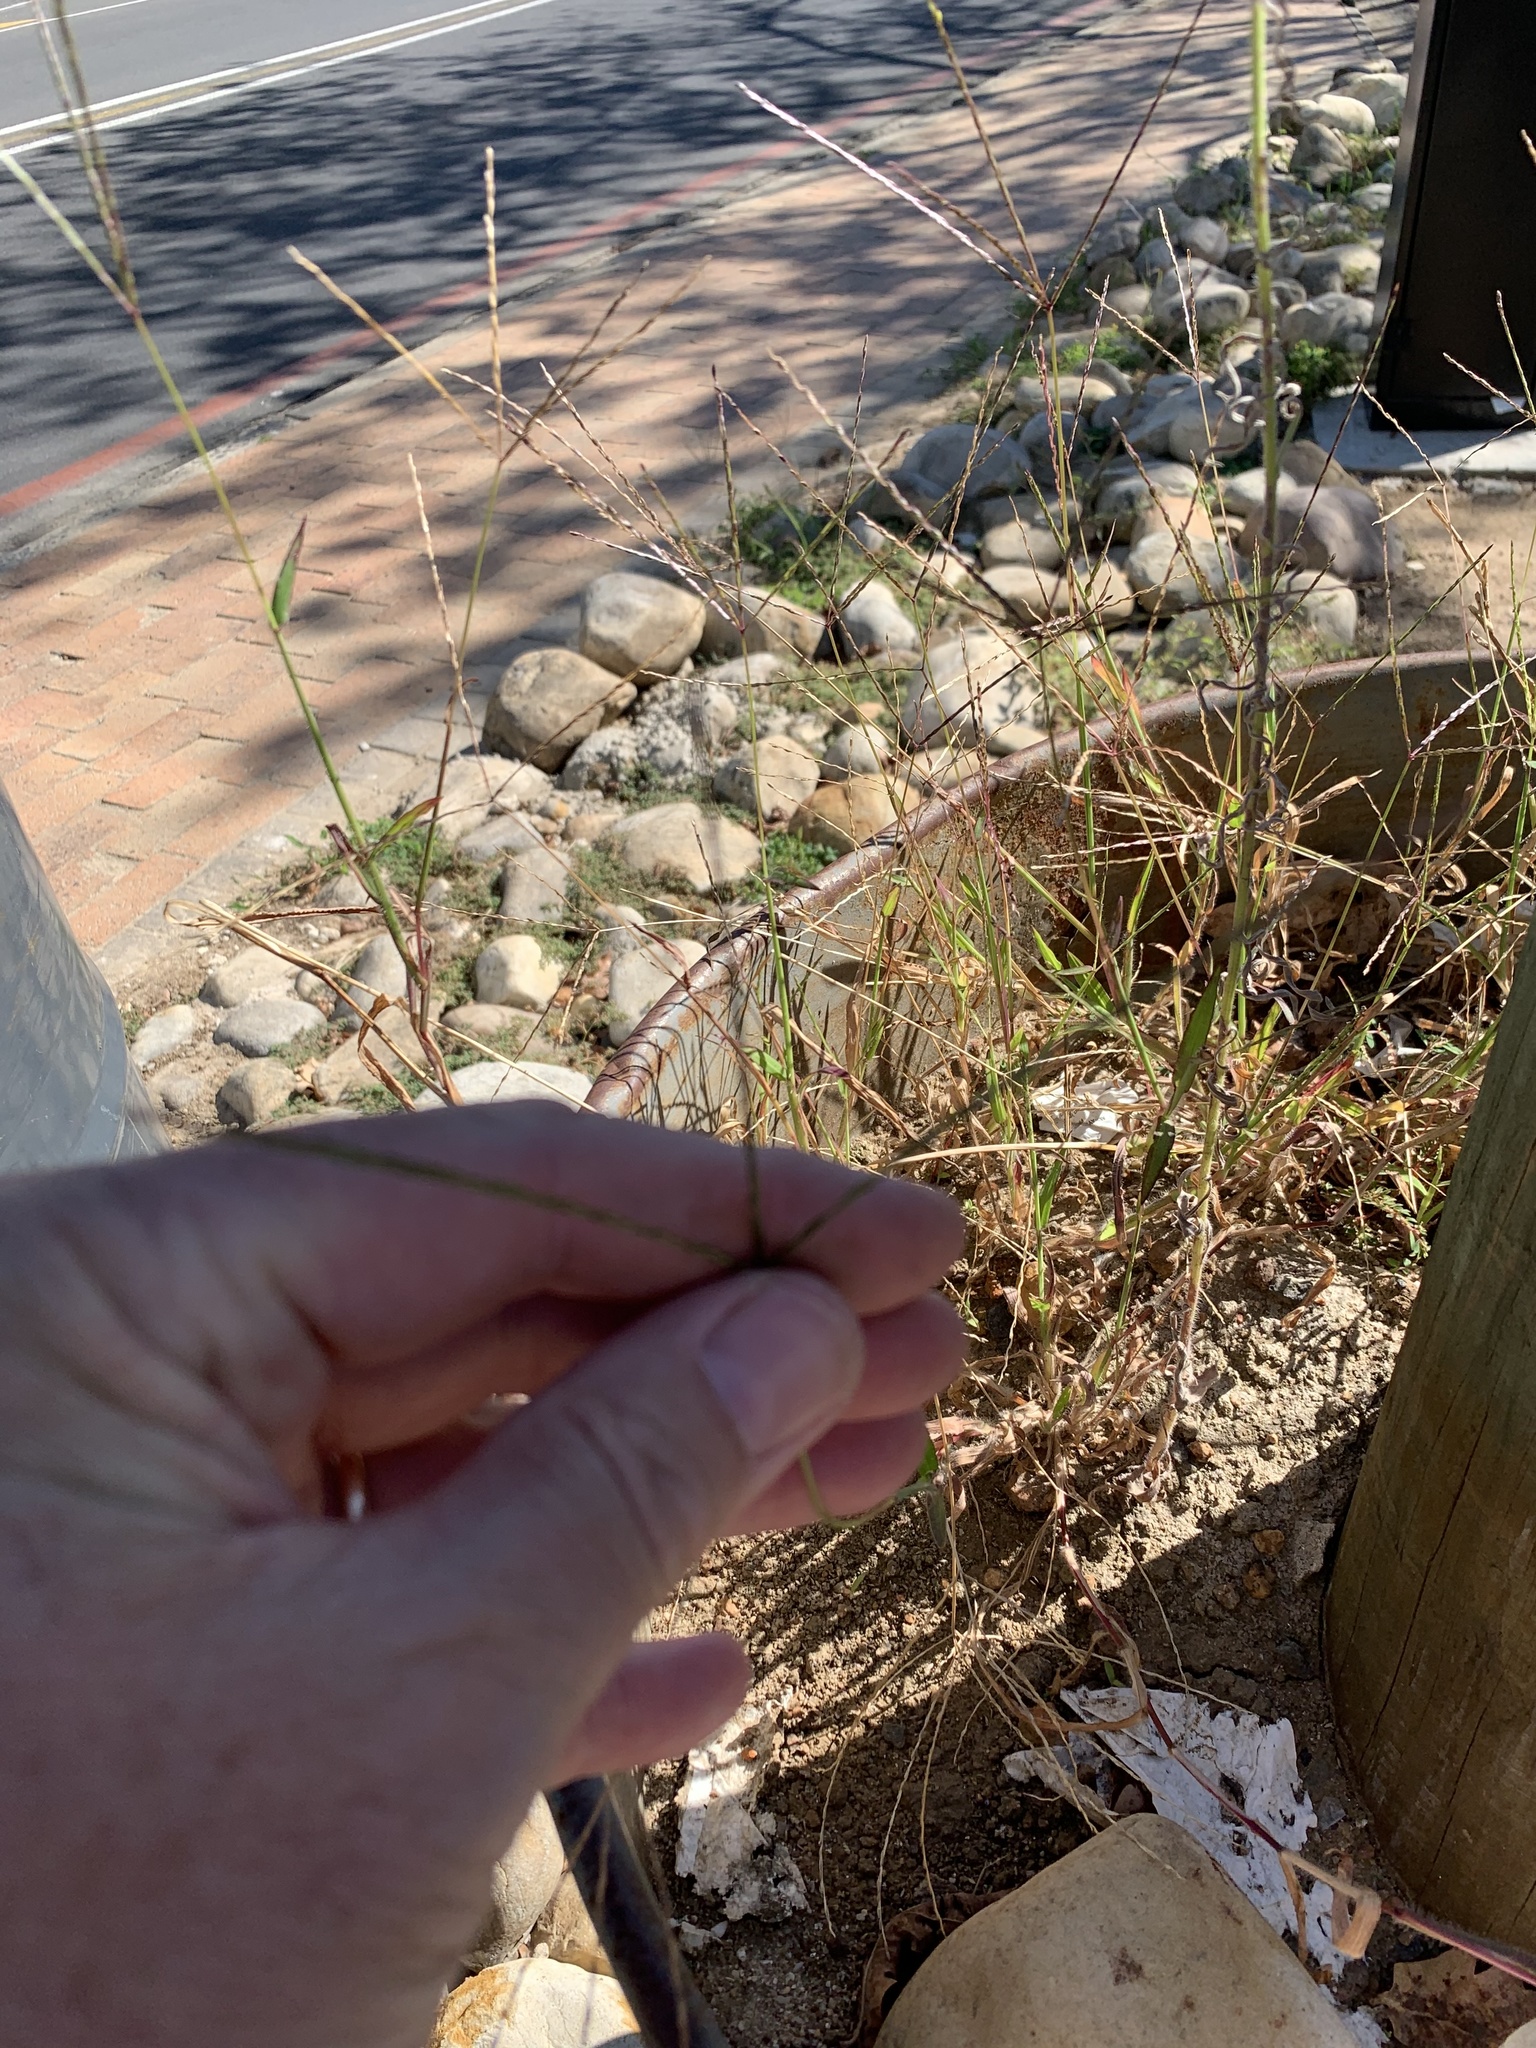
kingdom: Plantae
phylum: Tracheophyta
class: Liliopsida
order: Poales
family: Poaceae
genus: Digitaria
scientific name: Digitaria sanguinalis
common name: Hairy crabgrass
